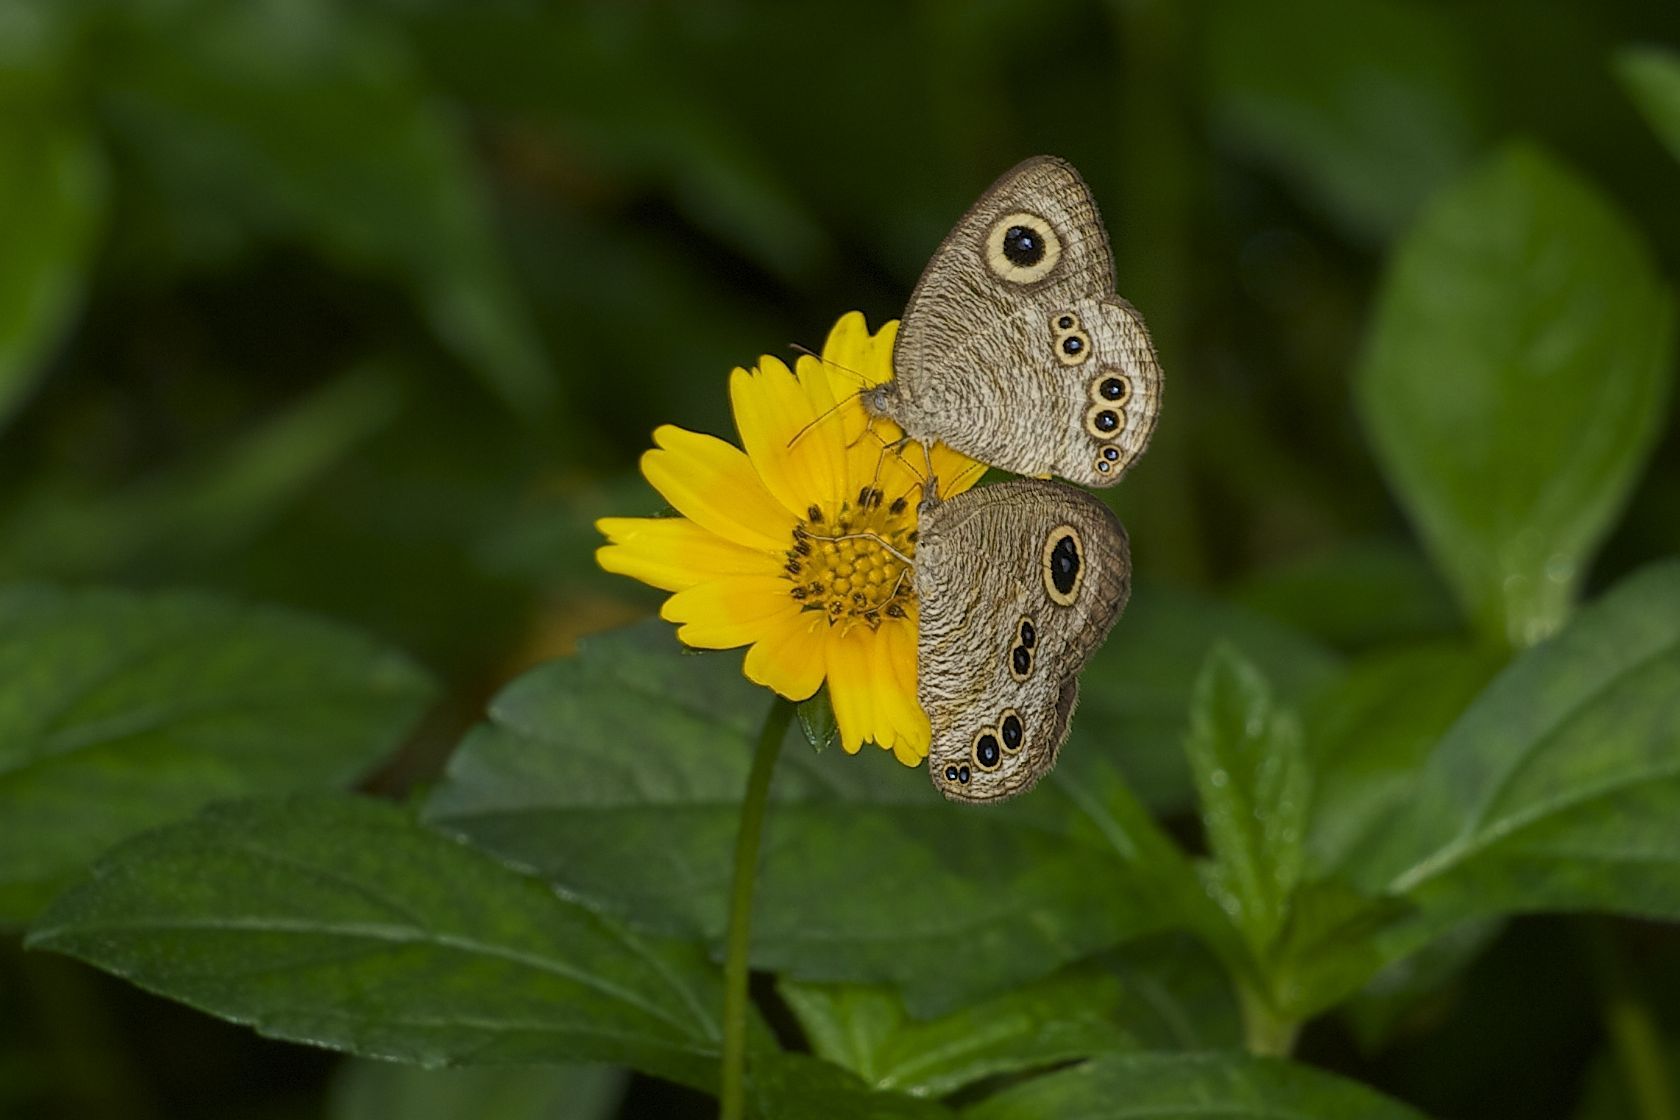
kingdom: Animalia
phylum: Arthropoda
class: Insecta
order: Lepidoptera
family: Nymphalidae
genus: Ypthima
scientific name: Ypthima baldus
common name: Common five-ring
